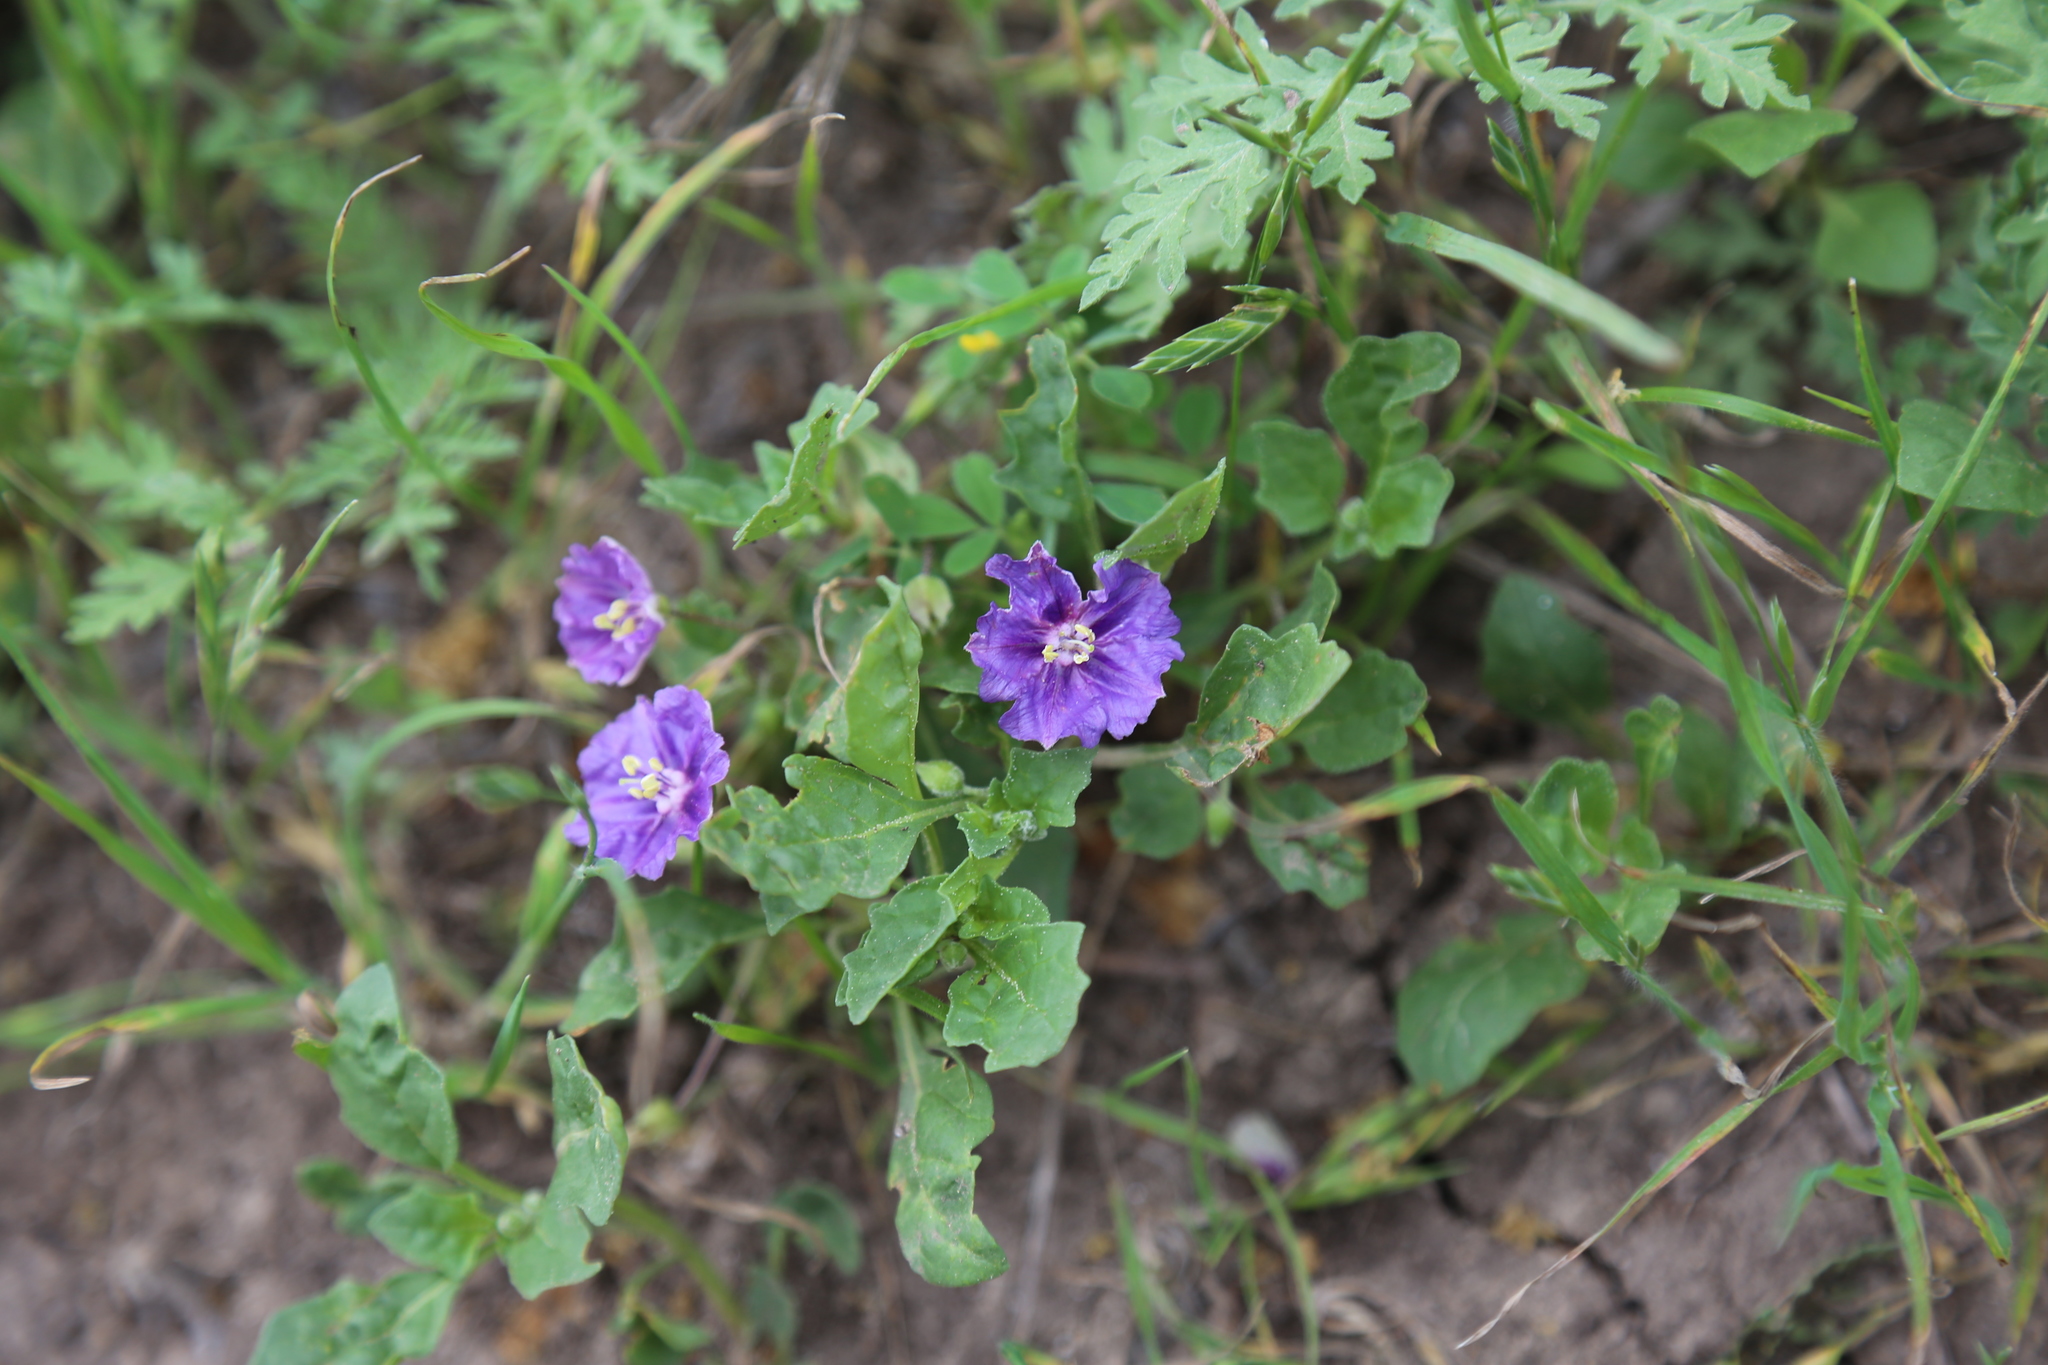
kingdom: Plantae
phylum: Tracheophyta
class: Magnoliopsida
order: Solanales
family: Solanaceae
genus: Quincula
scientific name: Quincula lobata
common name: Purple-ground-cherry
